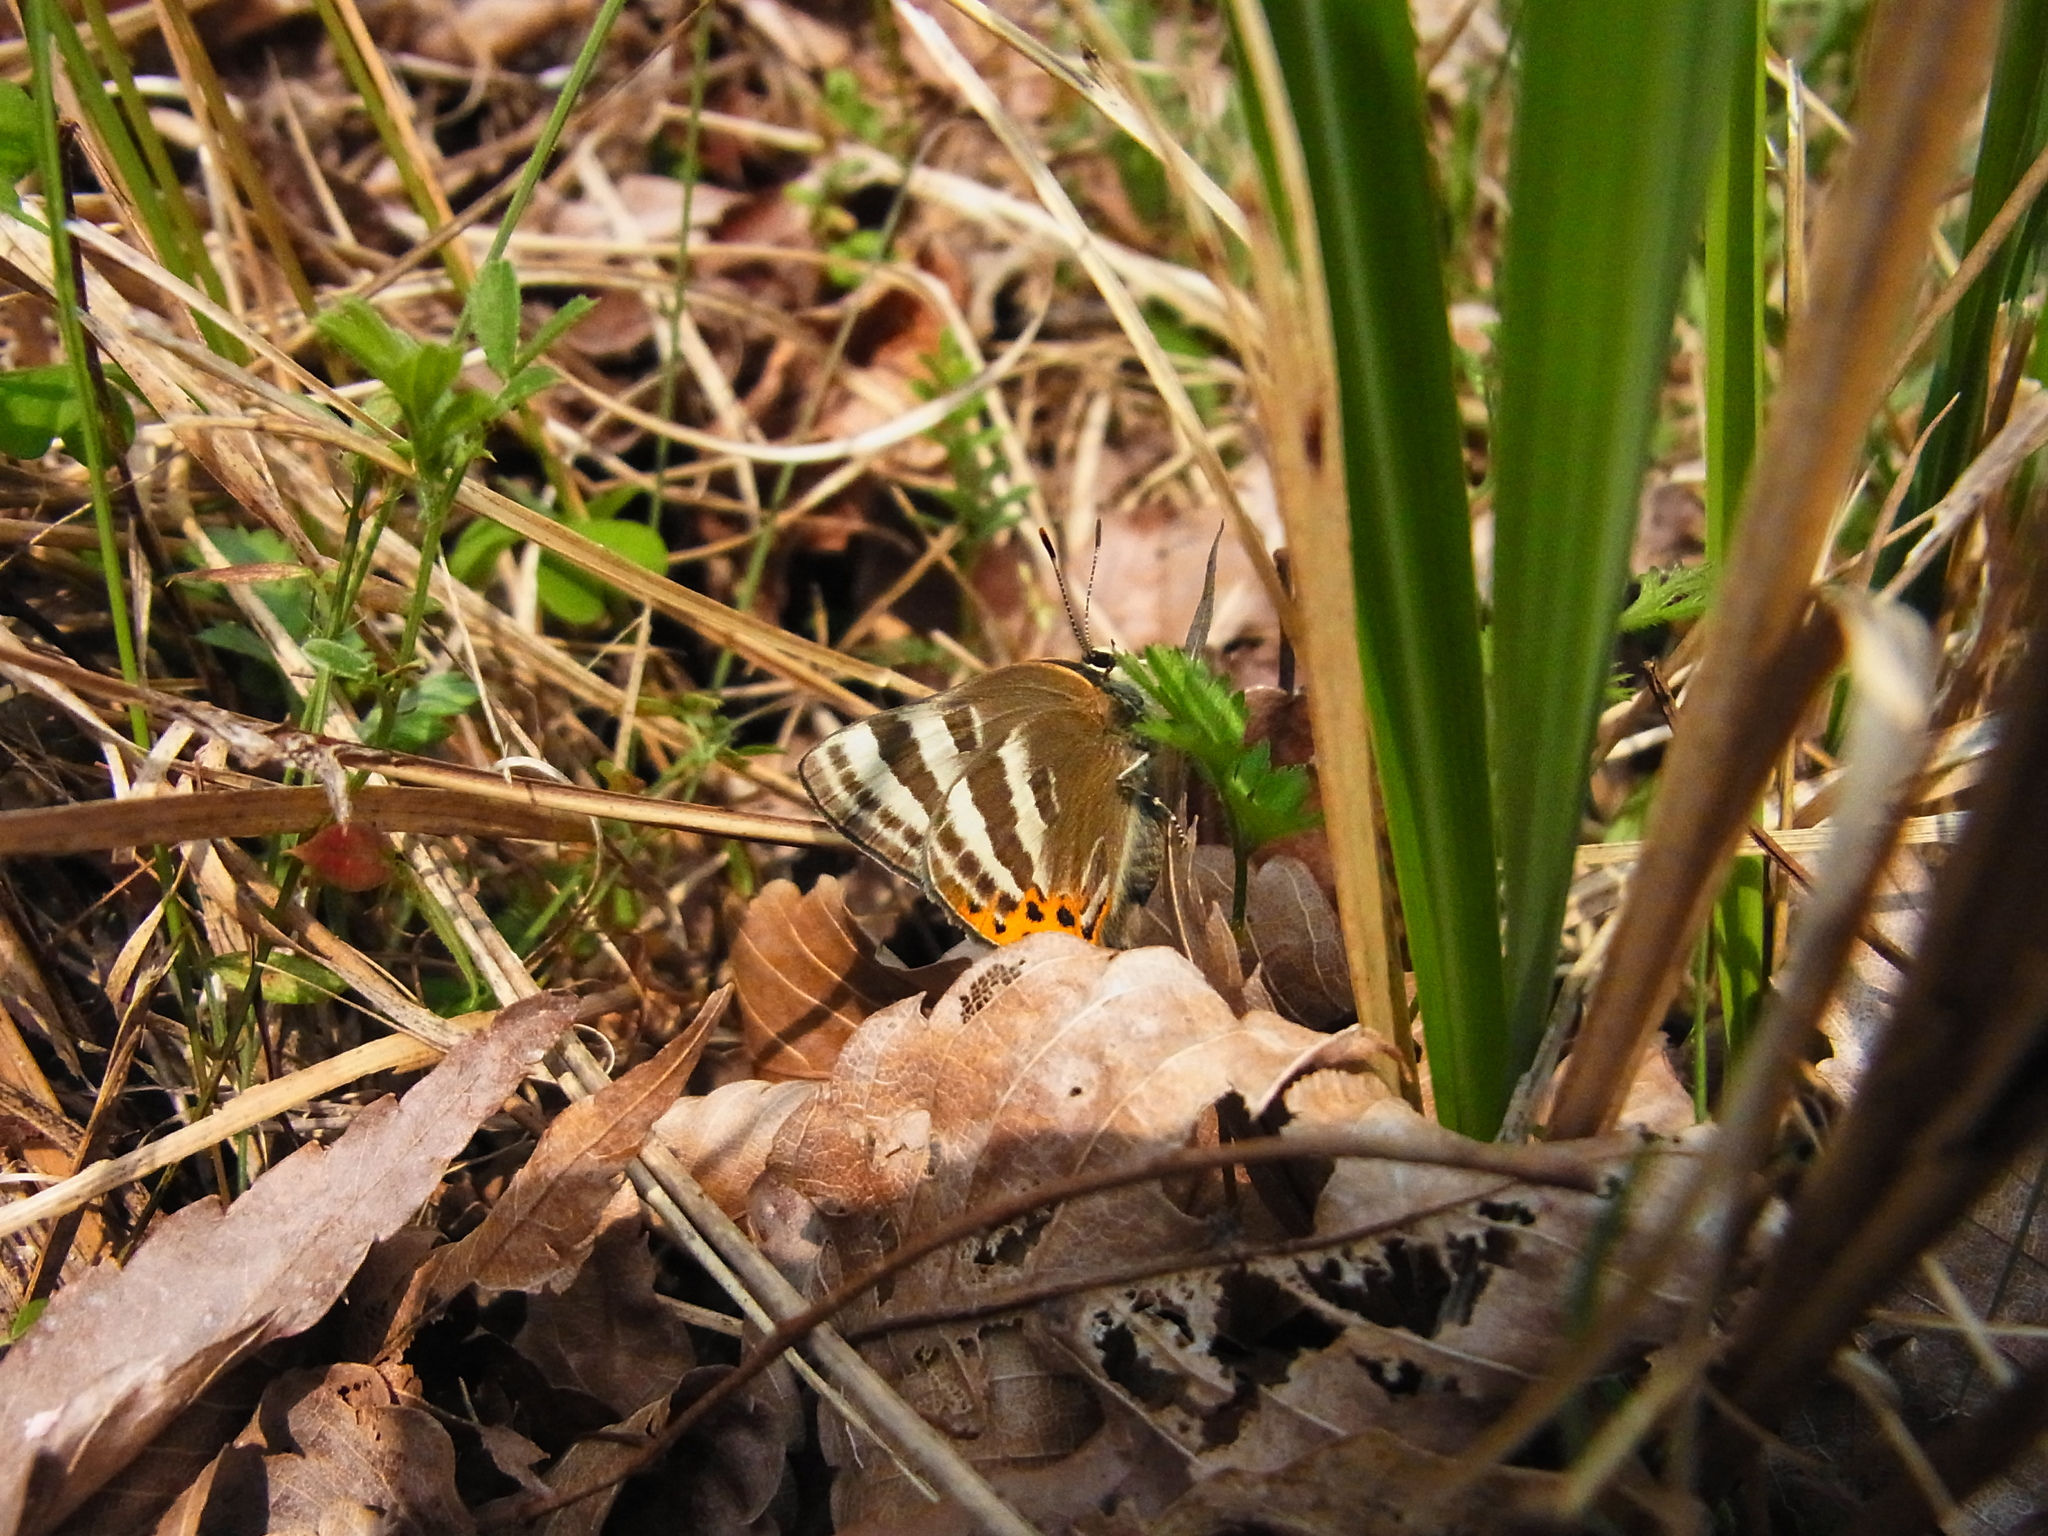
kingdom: Animalia
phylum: Arthropoda
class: Insecta
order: Lepidoptera
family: Lycaenidae
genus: Rapala
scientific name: Rapala arata
